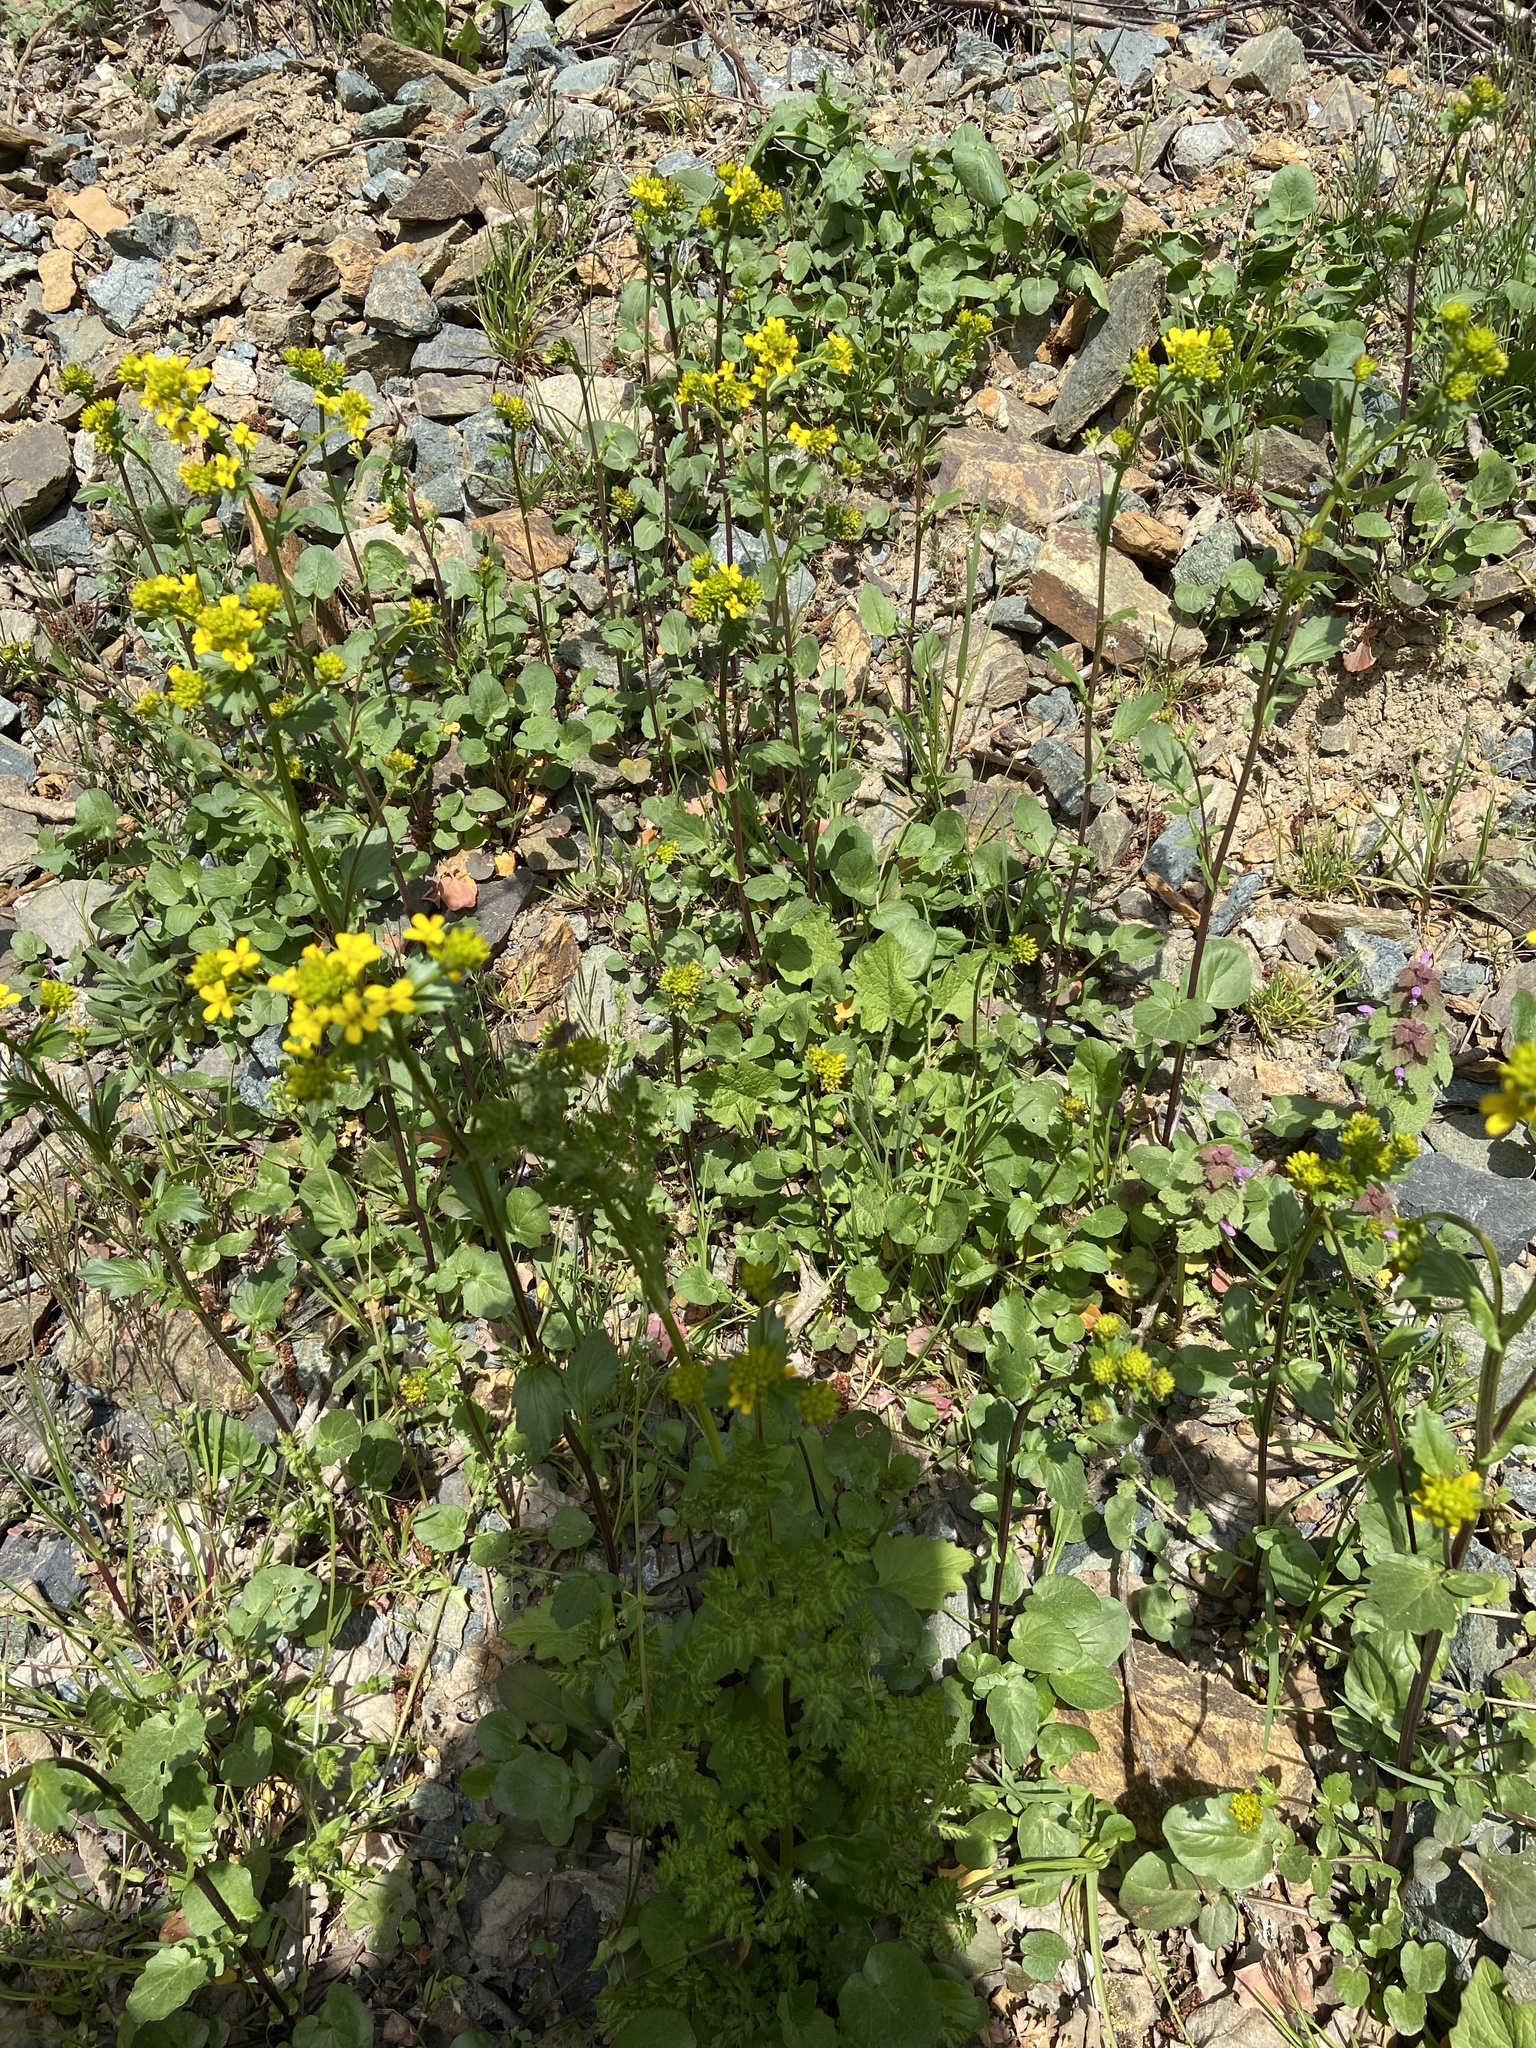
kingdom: Plantae
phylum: Tracheophyta
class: Magnoliopsida
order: Brassicales
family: Brassicaceae
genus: Barbarea
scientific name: Barbarea vulgaris
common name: Cressy-greens
